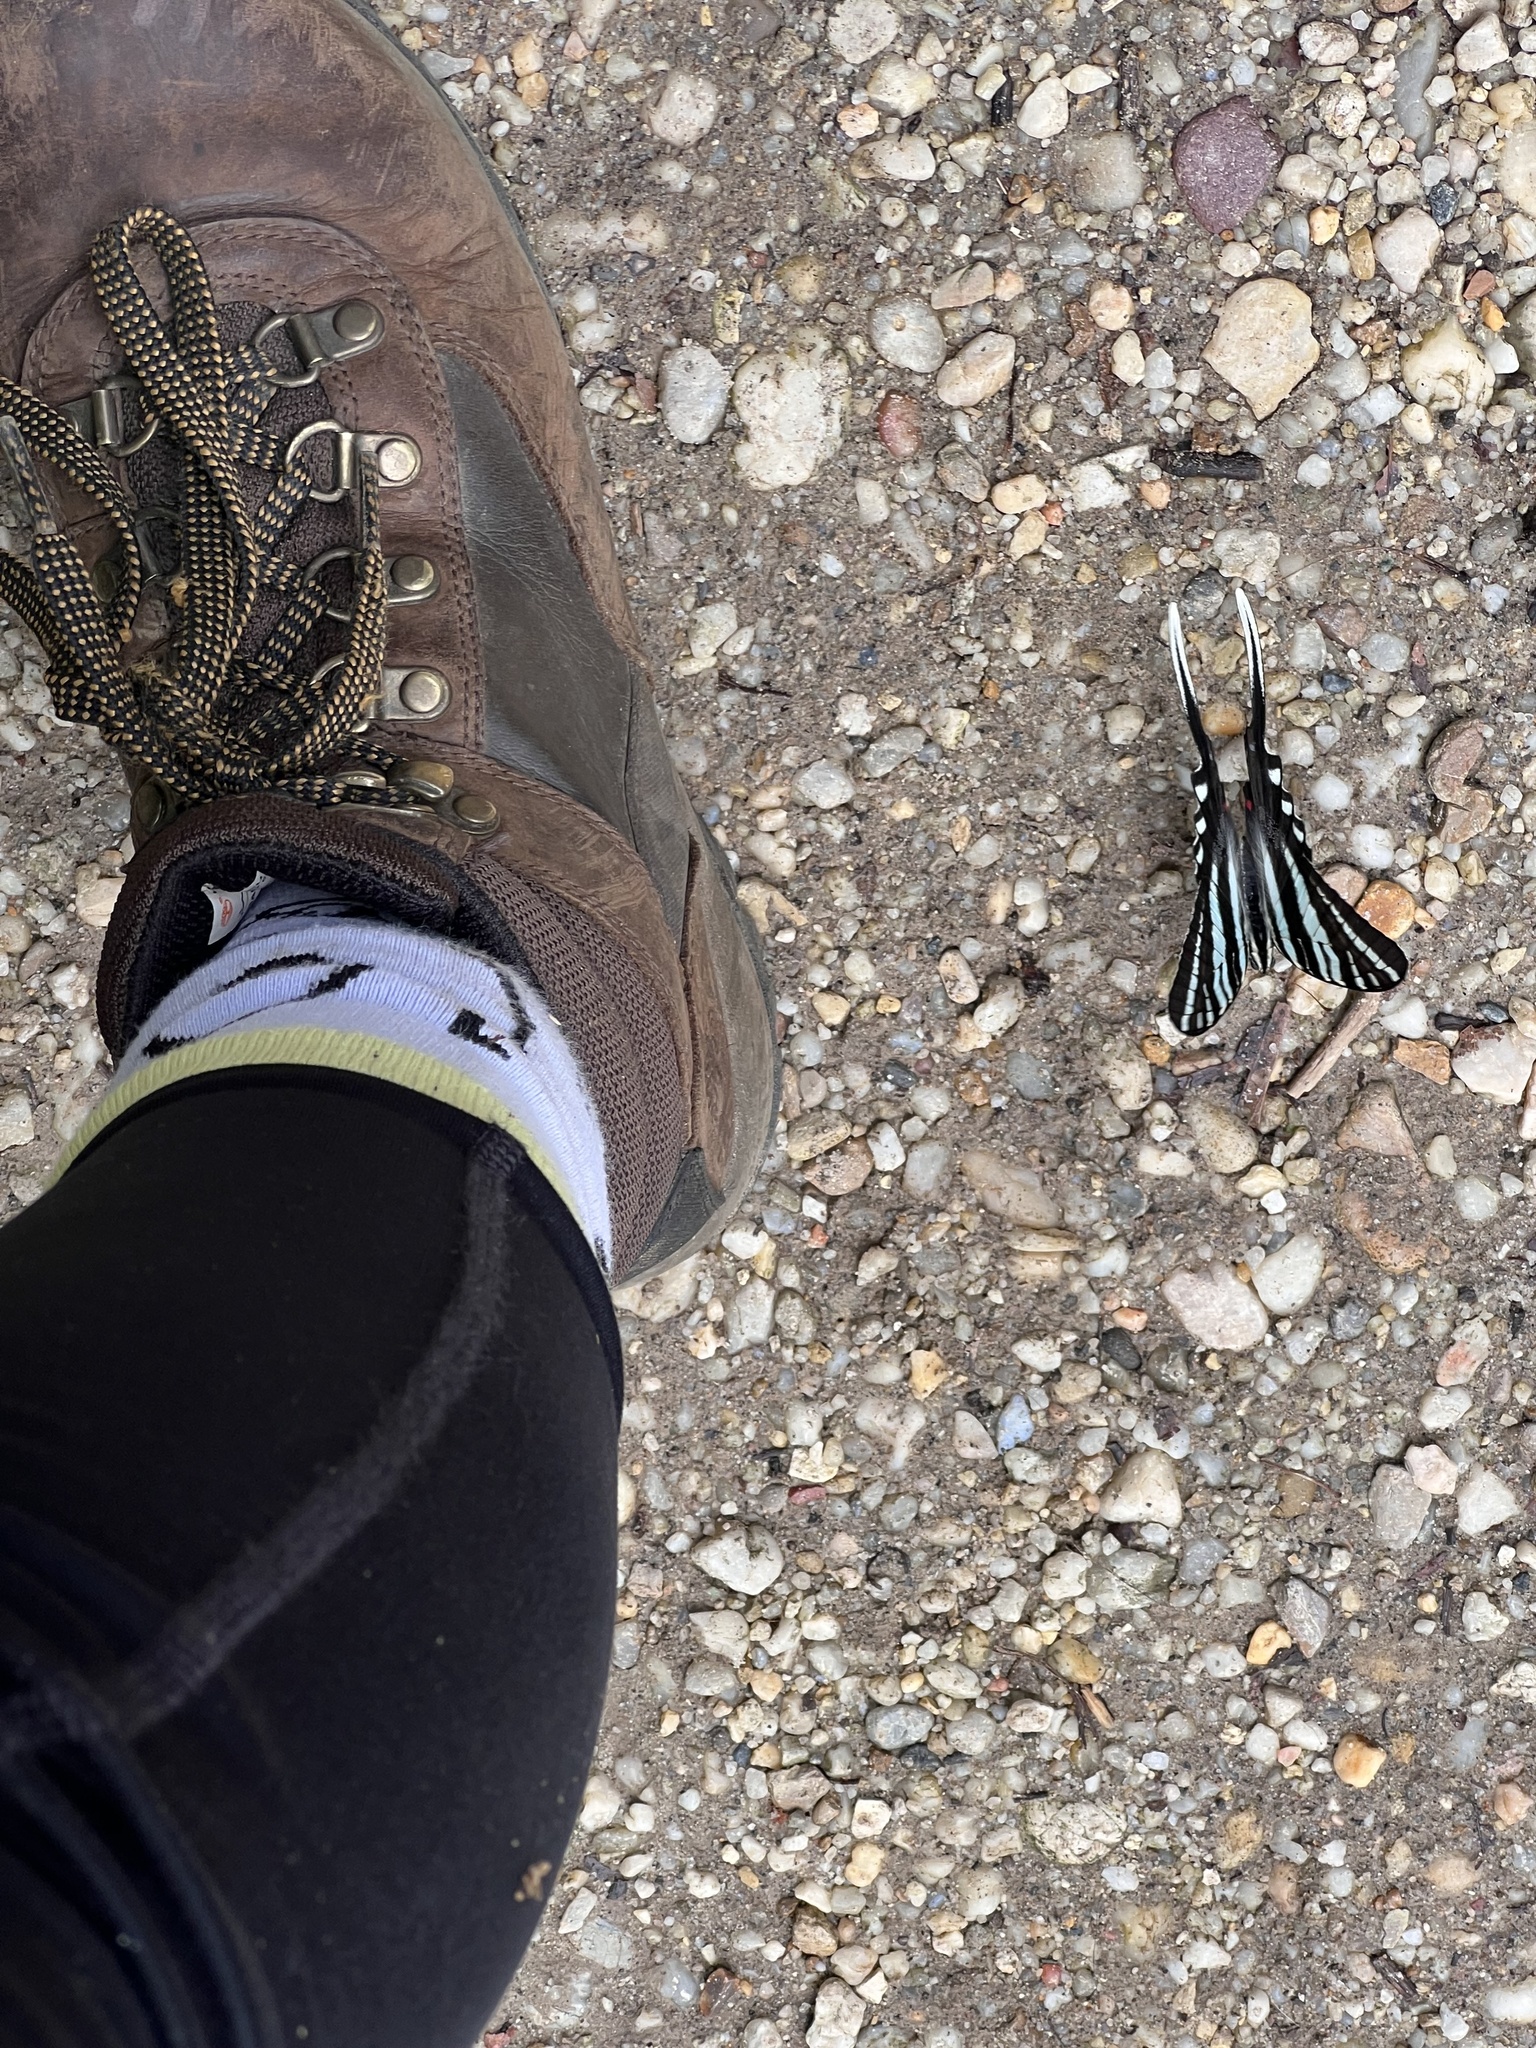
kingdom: Animalia
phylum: Arthropoda
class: Insecta
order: Lepidoptera
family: Papilionidae
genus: Protographium
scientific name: Protographium marcellus
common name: Zebra swallowtail
